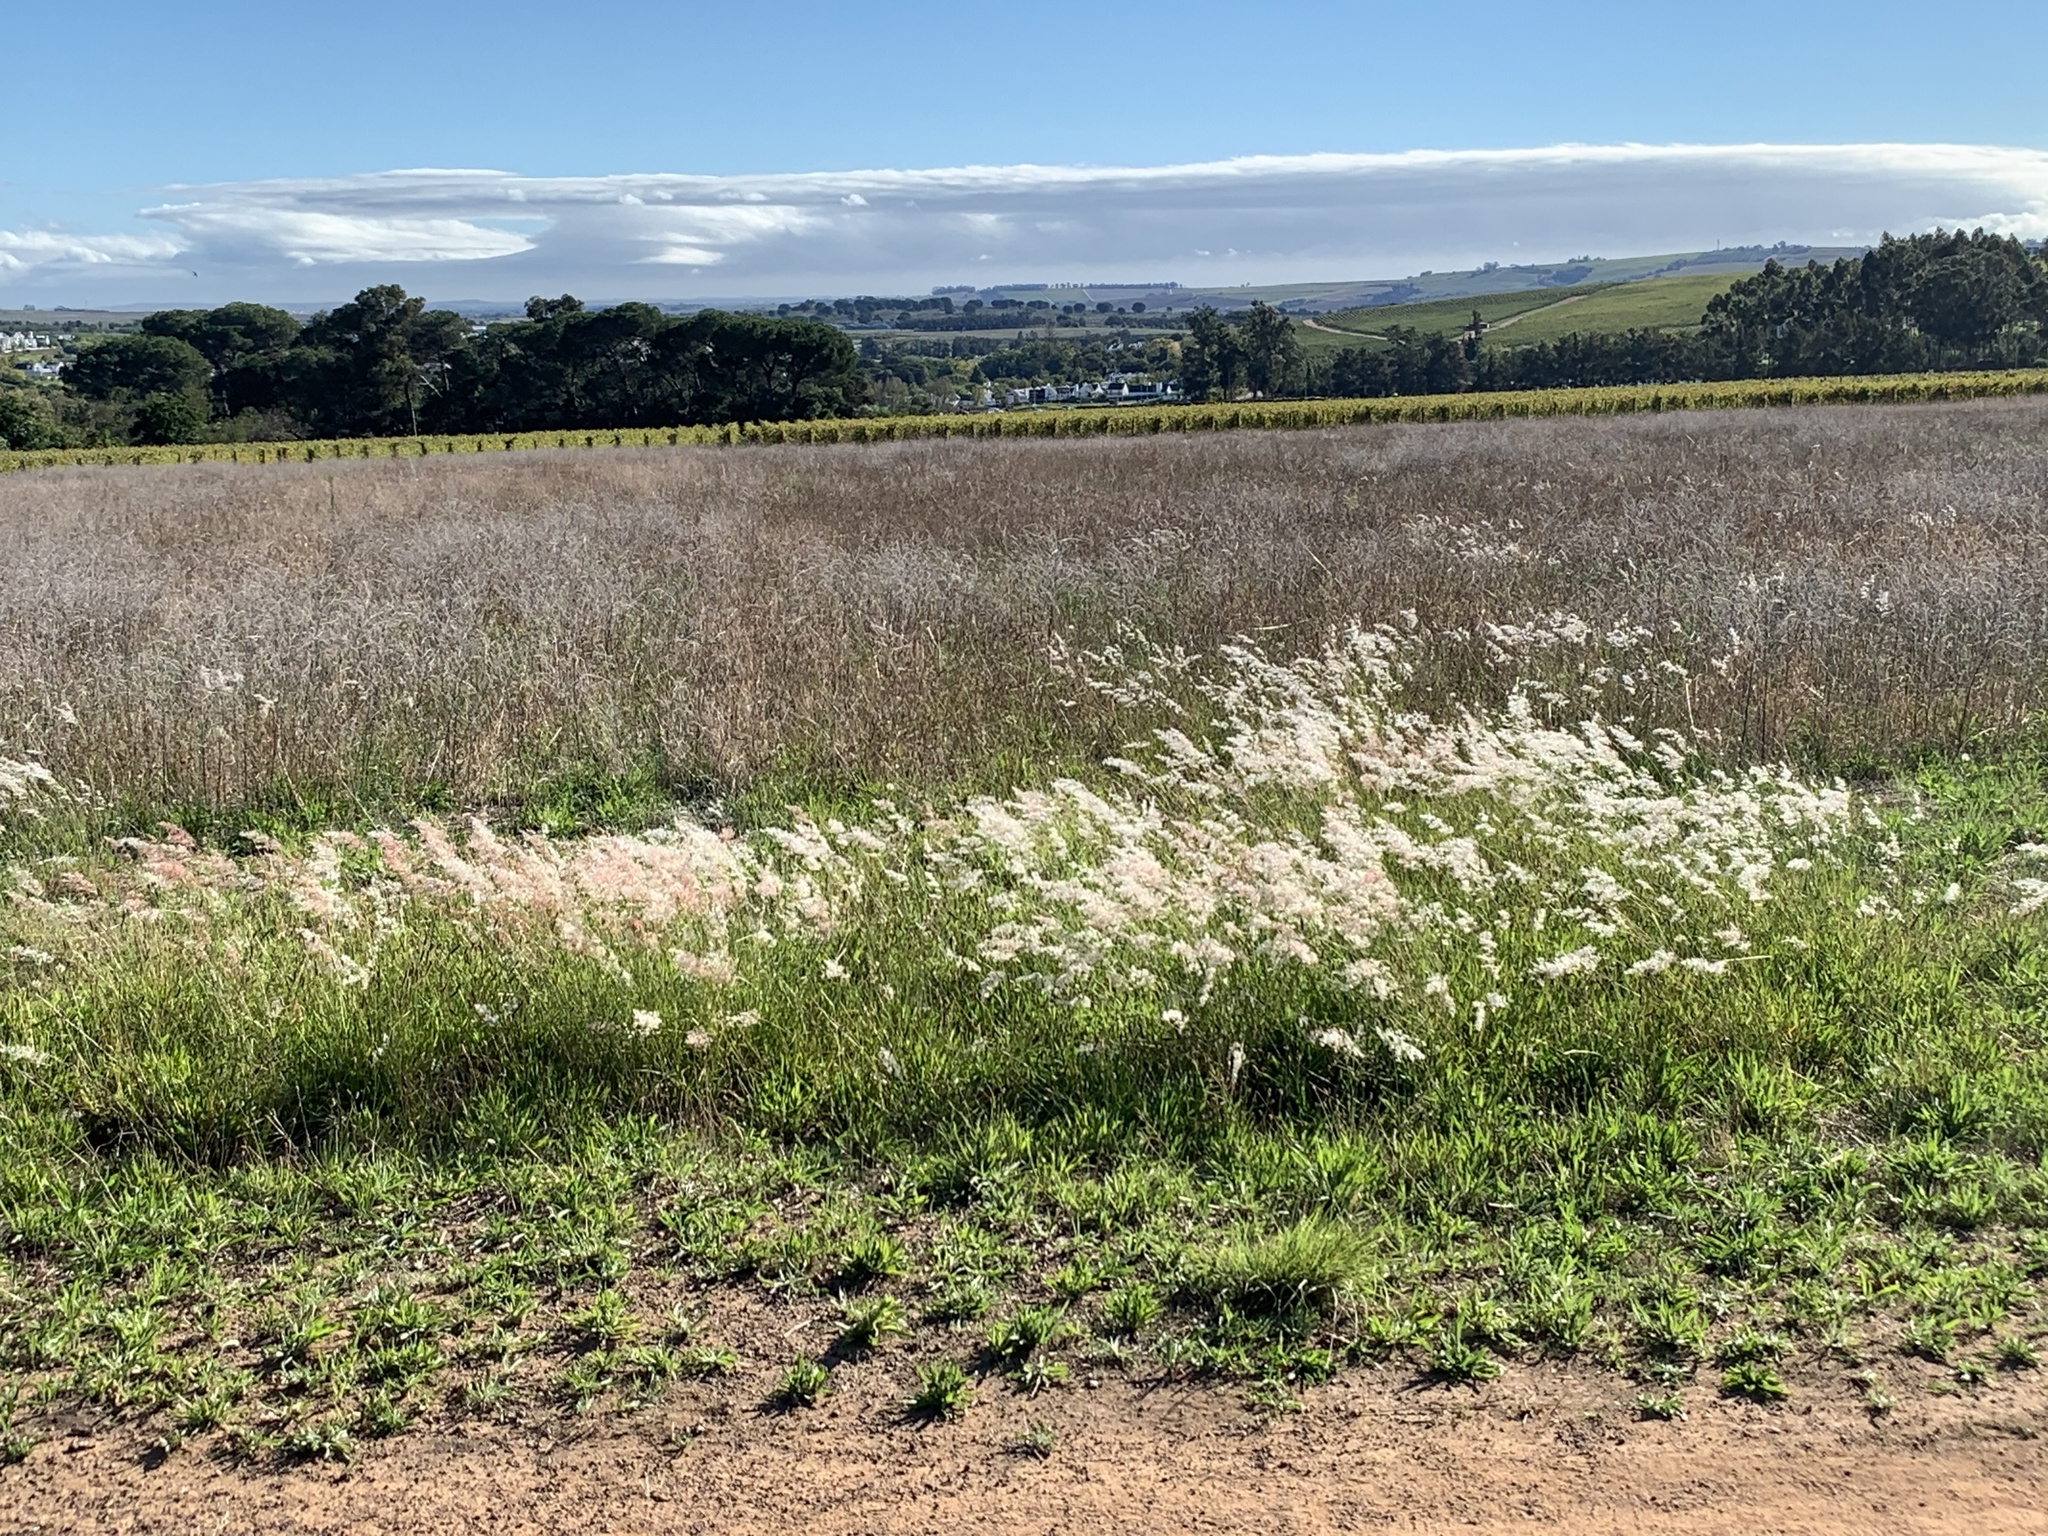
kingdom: Plantae
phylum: Tracheophyta
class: Liliopsida
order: Poales
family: Poaceae
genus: Melinis
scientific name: Melinis repens
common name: Rose natal grass
